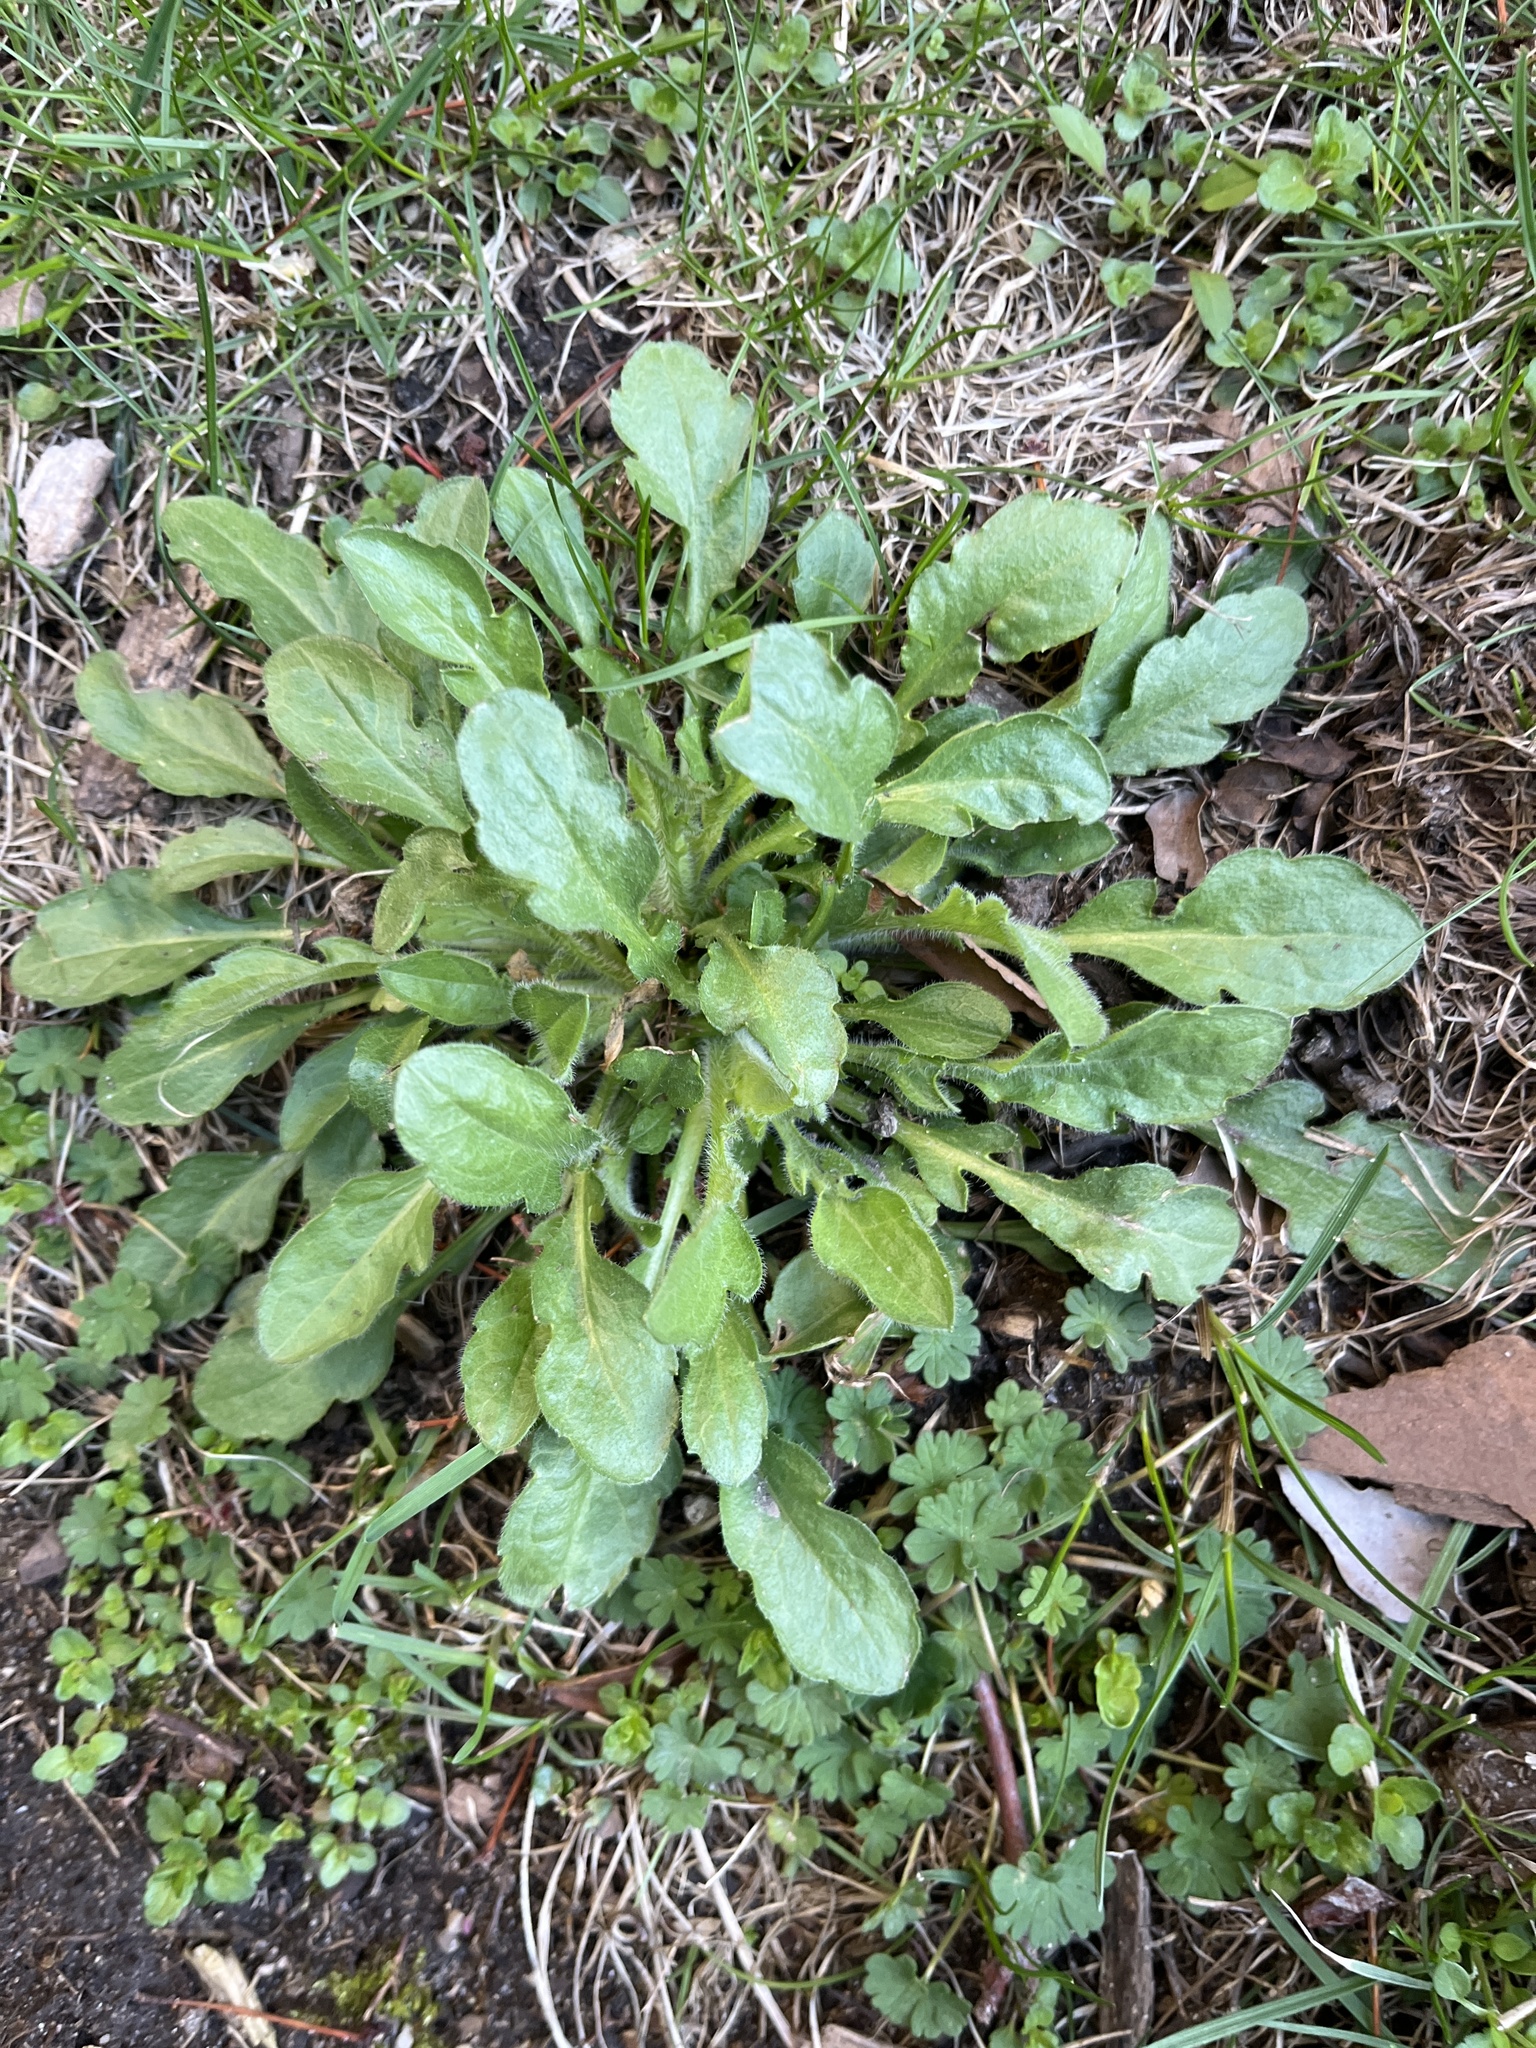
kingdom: Plantae
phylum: Tracheophyta
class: Magnoliopsida
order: Asterales
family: Asteraceae
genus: Erigeron
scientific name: Erigeron canadensis
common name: Canadian fleabane
